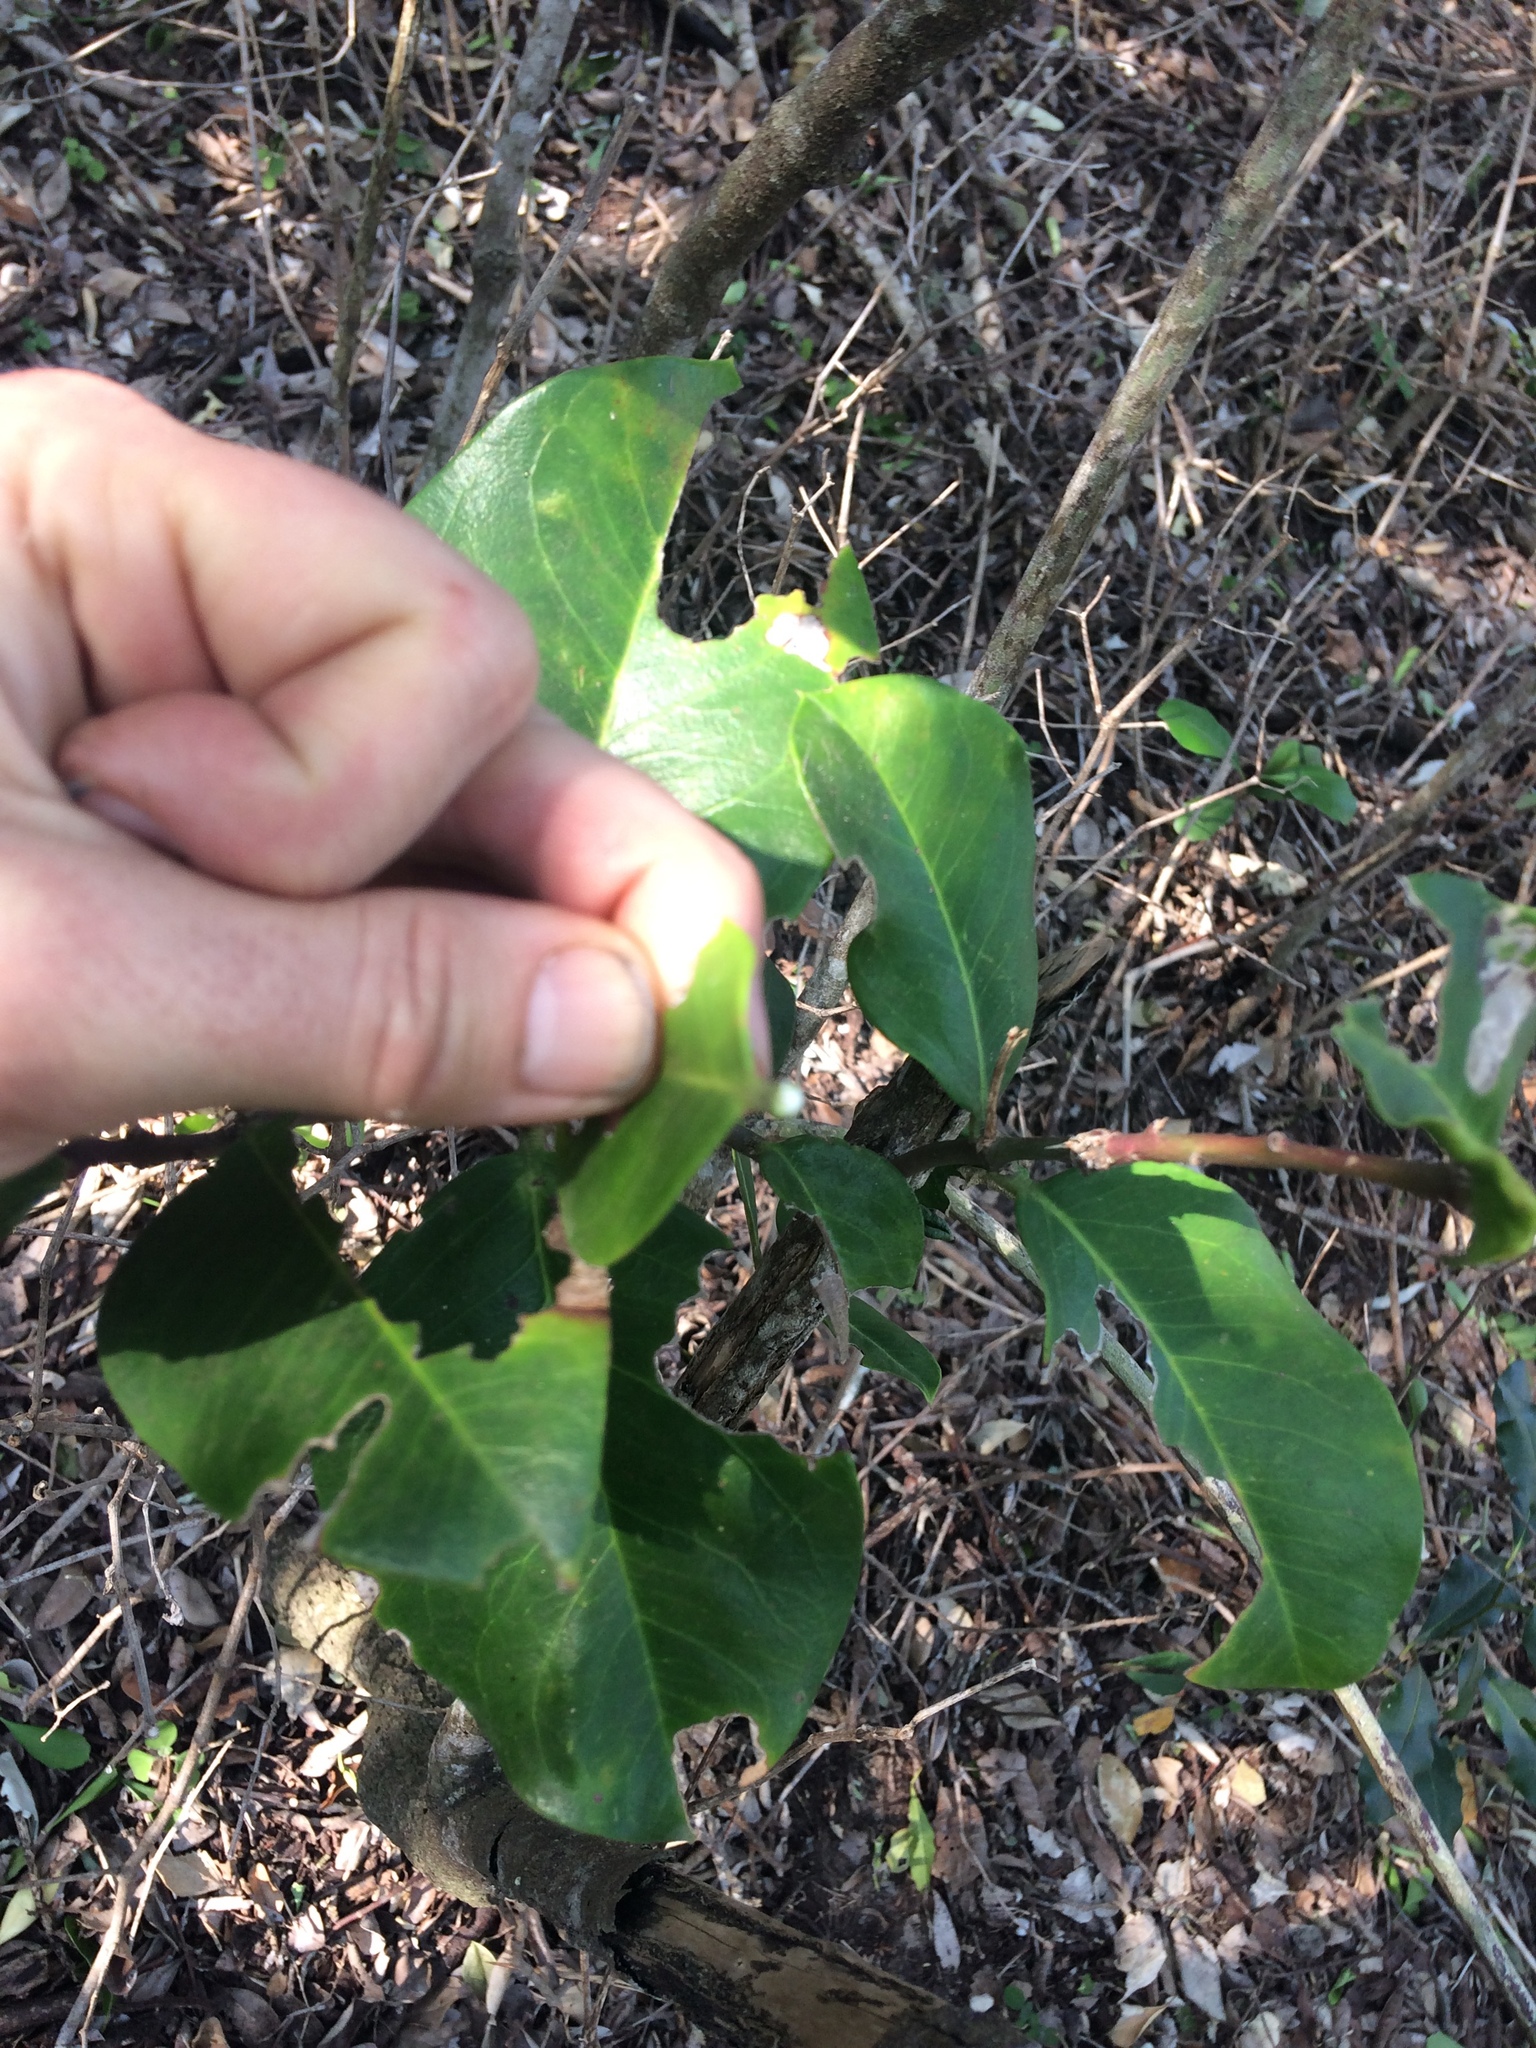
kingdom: Plantae
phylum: Tracheophyta
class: Magnoliopsida
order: Gentianales
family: Apocynaceae
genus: Acokanthera
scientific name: Acokanthera oppositifolia
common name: Bushman's-poison
